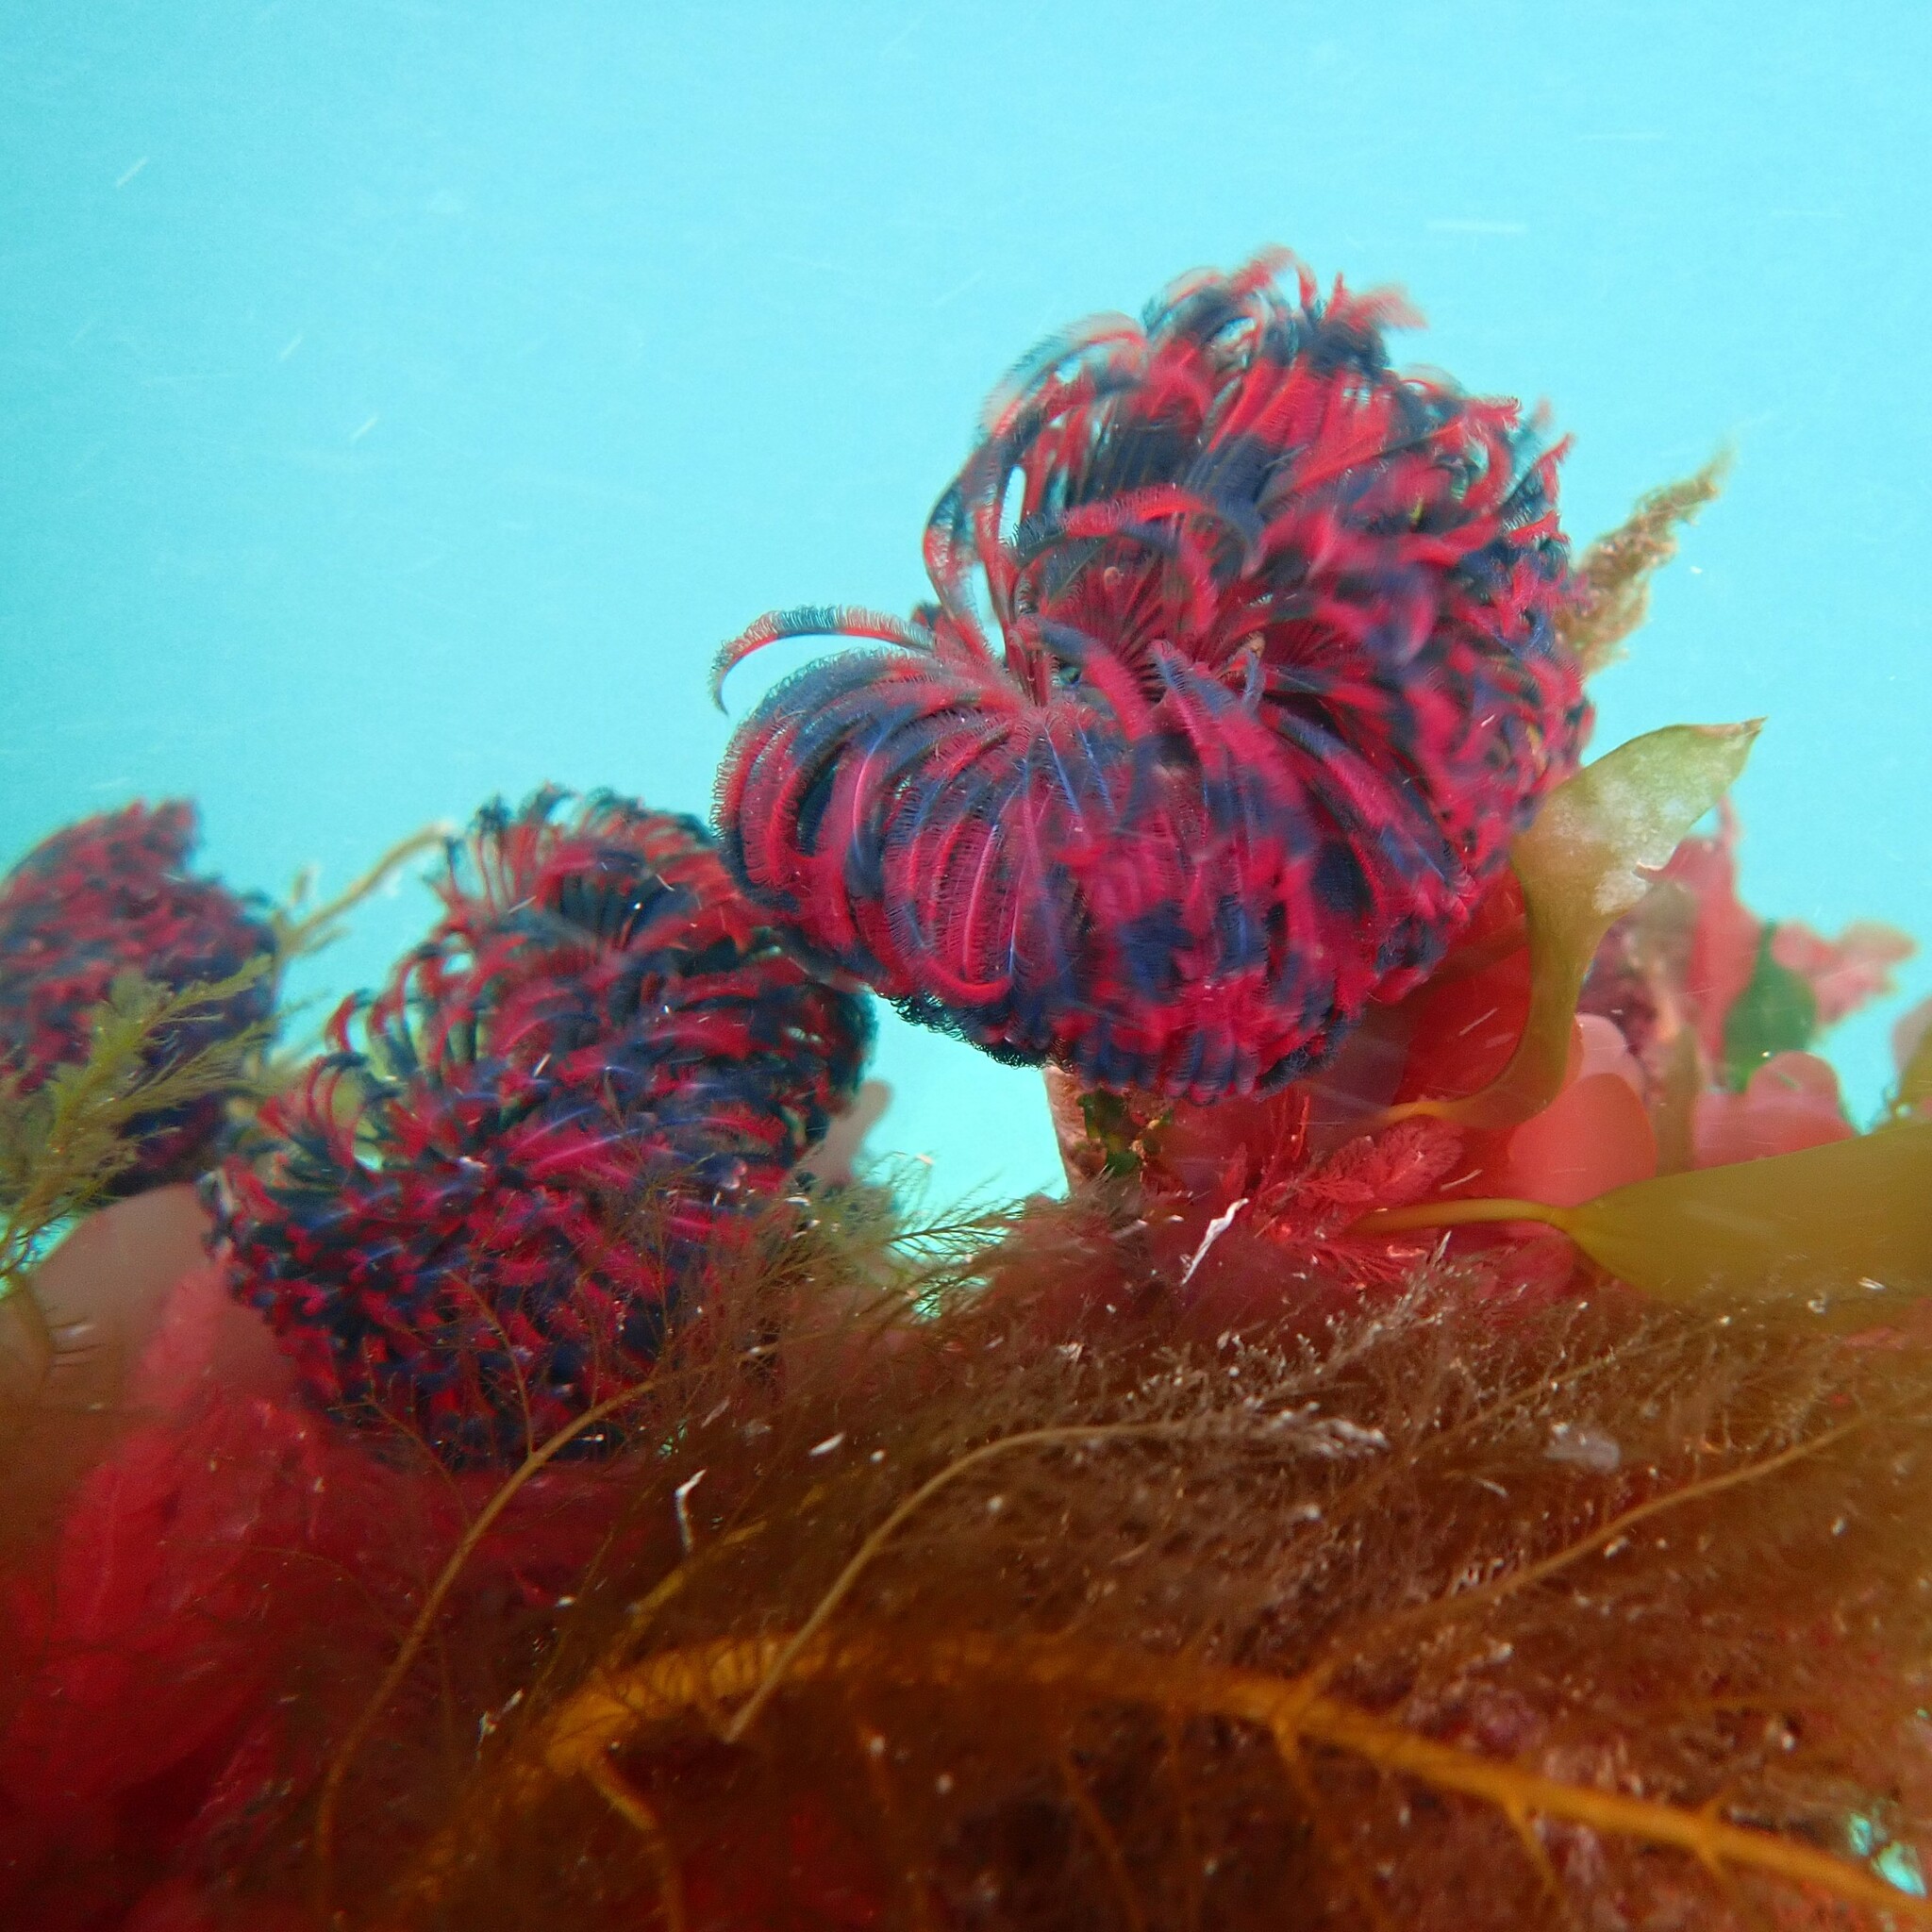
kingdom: Animalia
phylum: Annelida
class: Polychaeta
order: Sabellida
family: Sabellidae
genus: Eudistylia
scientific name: Eudistylia vancouveri
